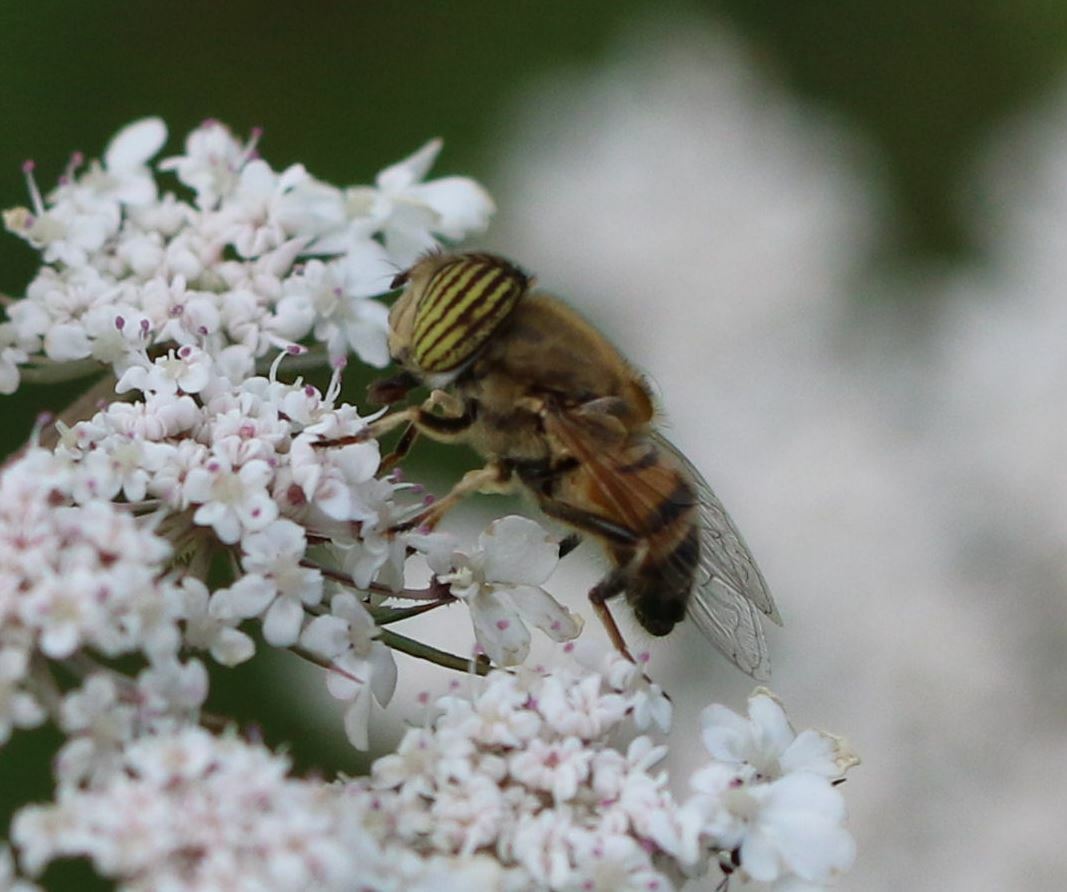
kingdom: Animalia
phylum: Arthropoda
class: Insecta
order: Diptera
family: Syrphidae
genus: Eristalinus
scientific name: Eristalinus taeniops
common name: Syrphid fly
